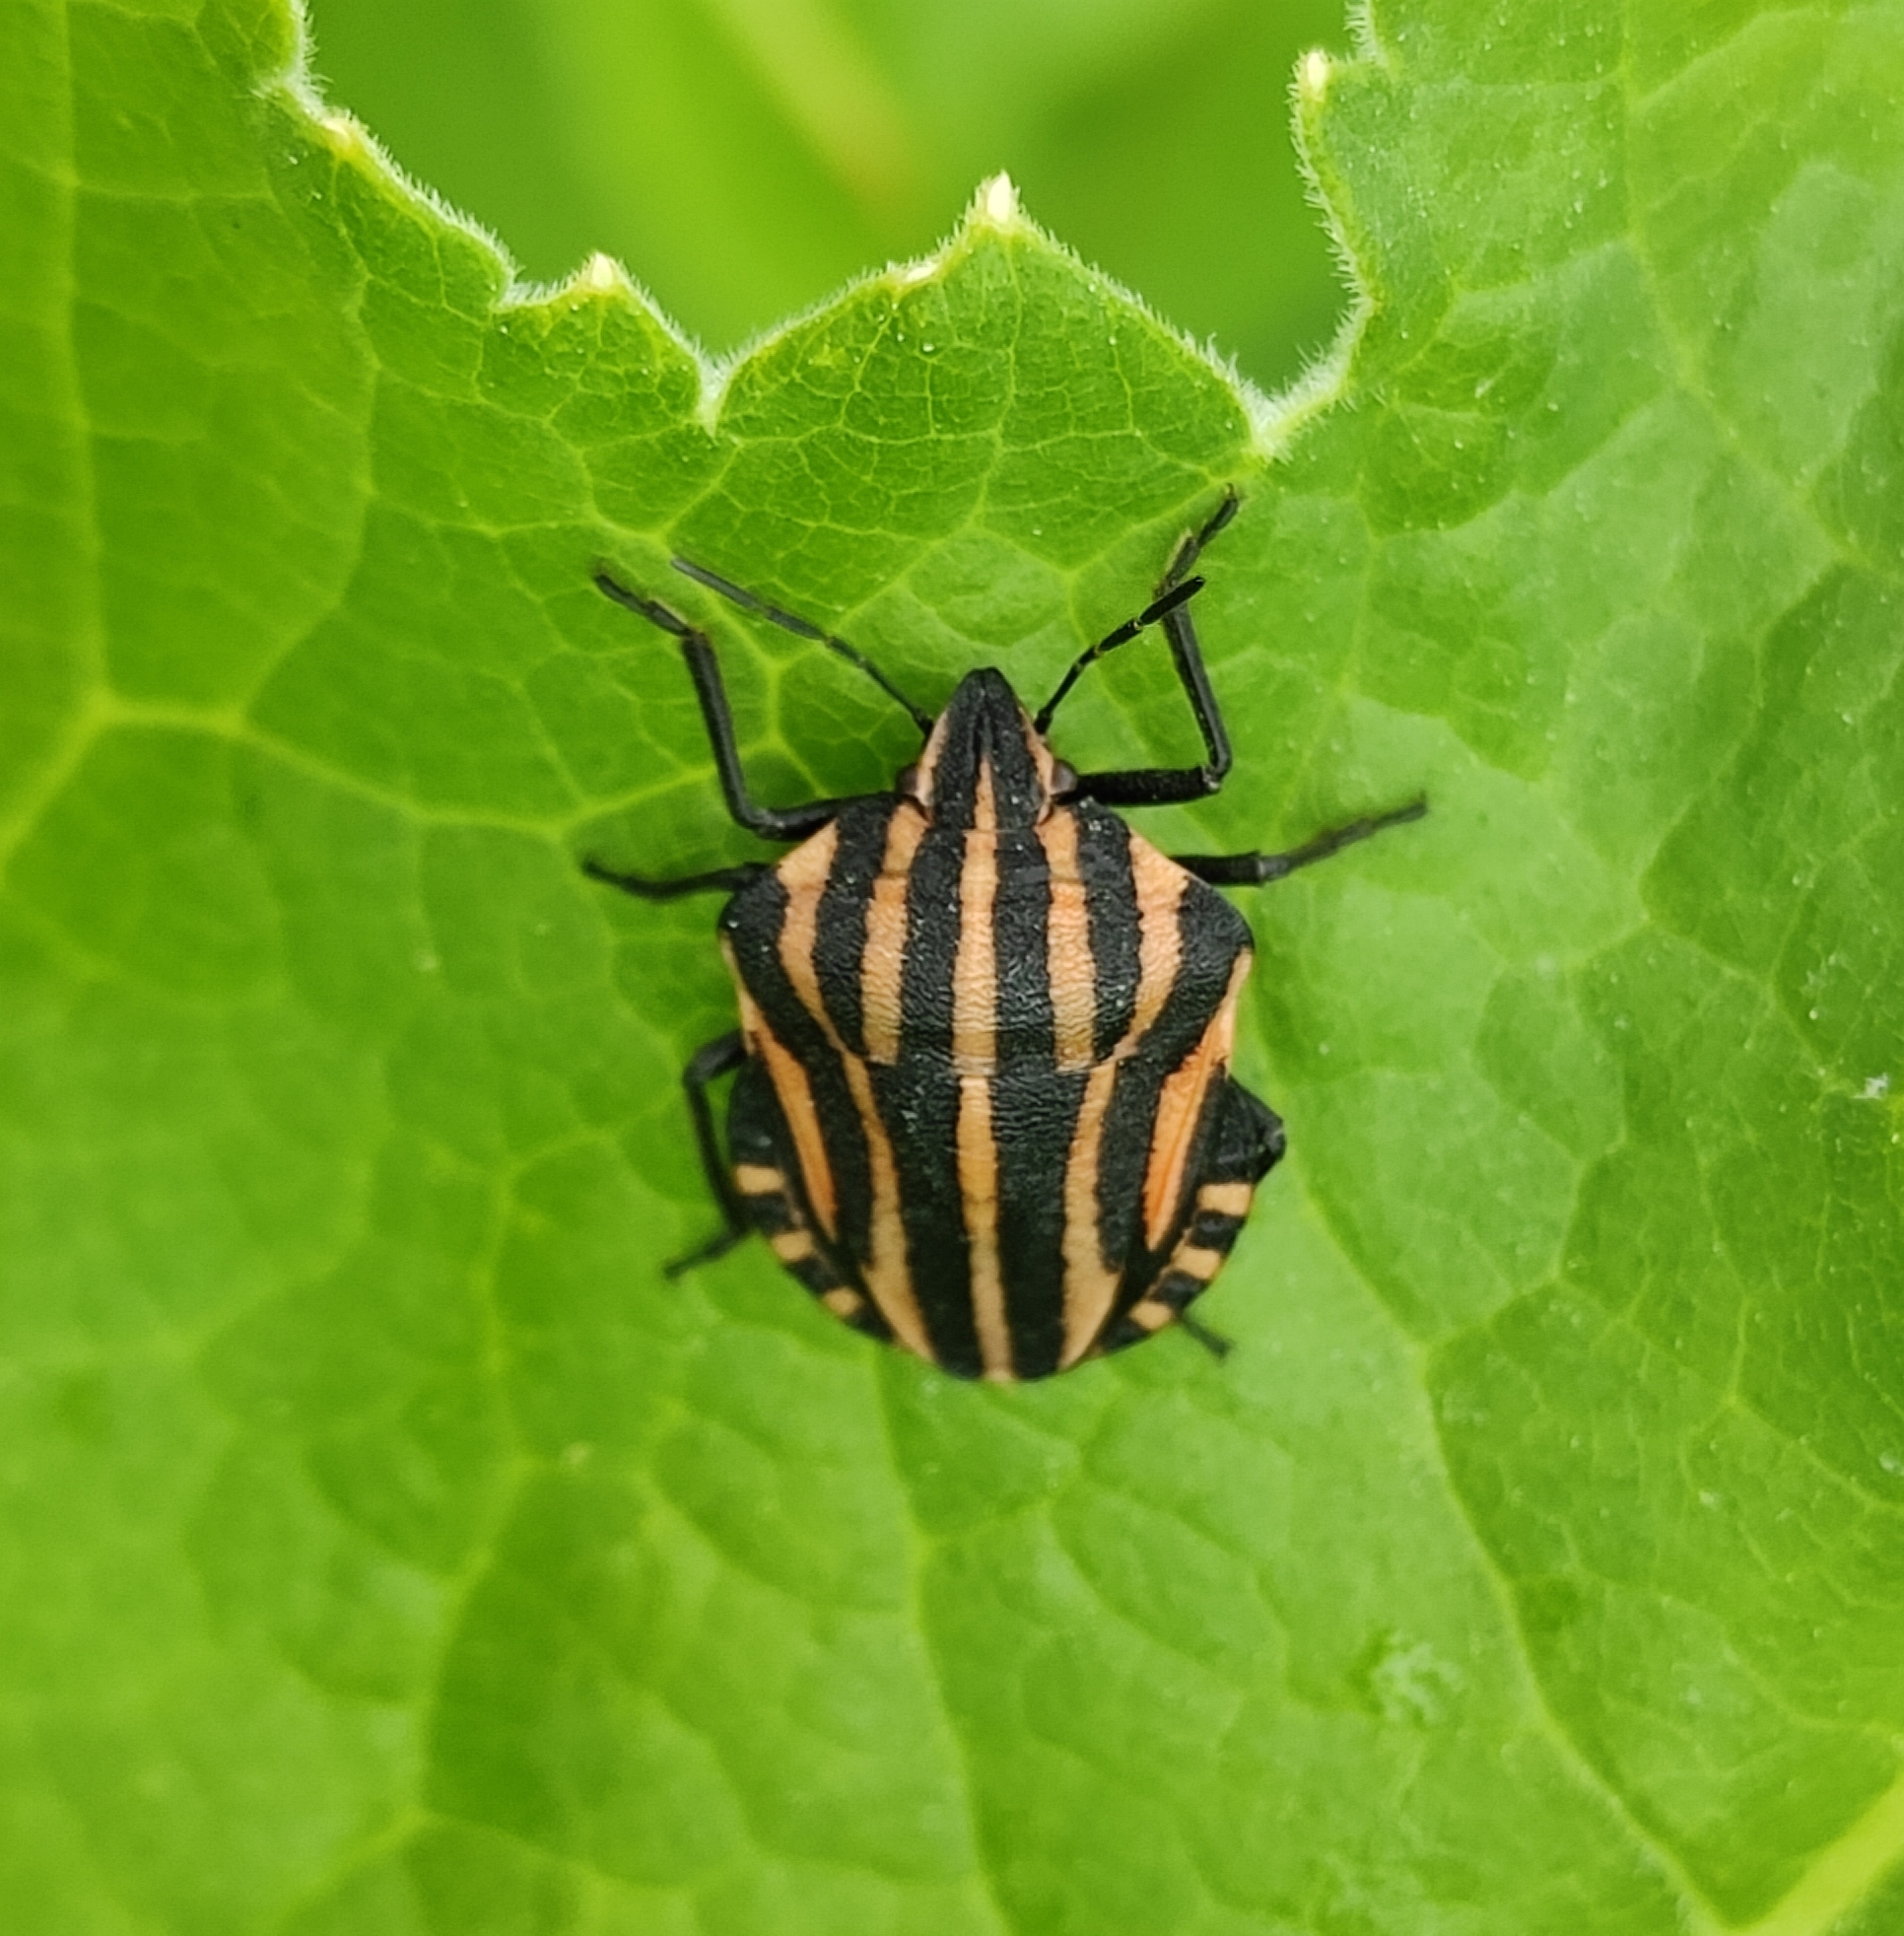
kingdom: Animalia
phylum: Arthropoda
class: Insecta
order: Hemiptera
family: Pentatomidae
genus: Graphosoma
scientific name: Graphosoma italicum
